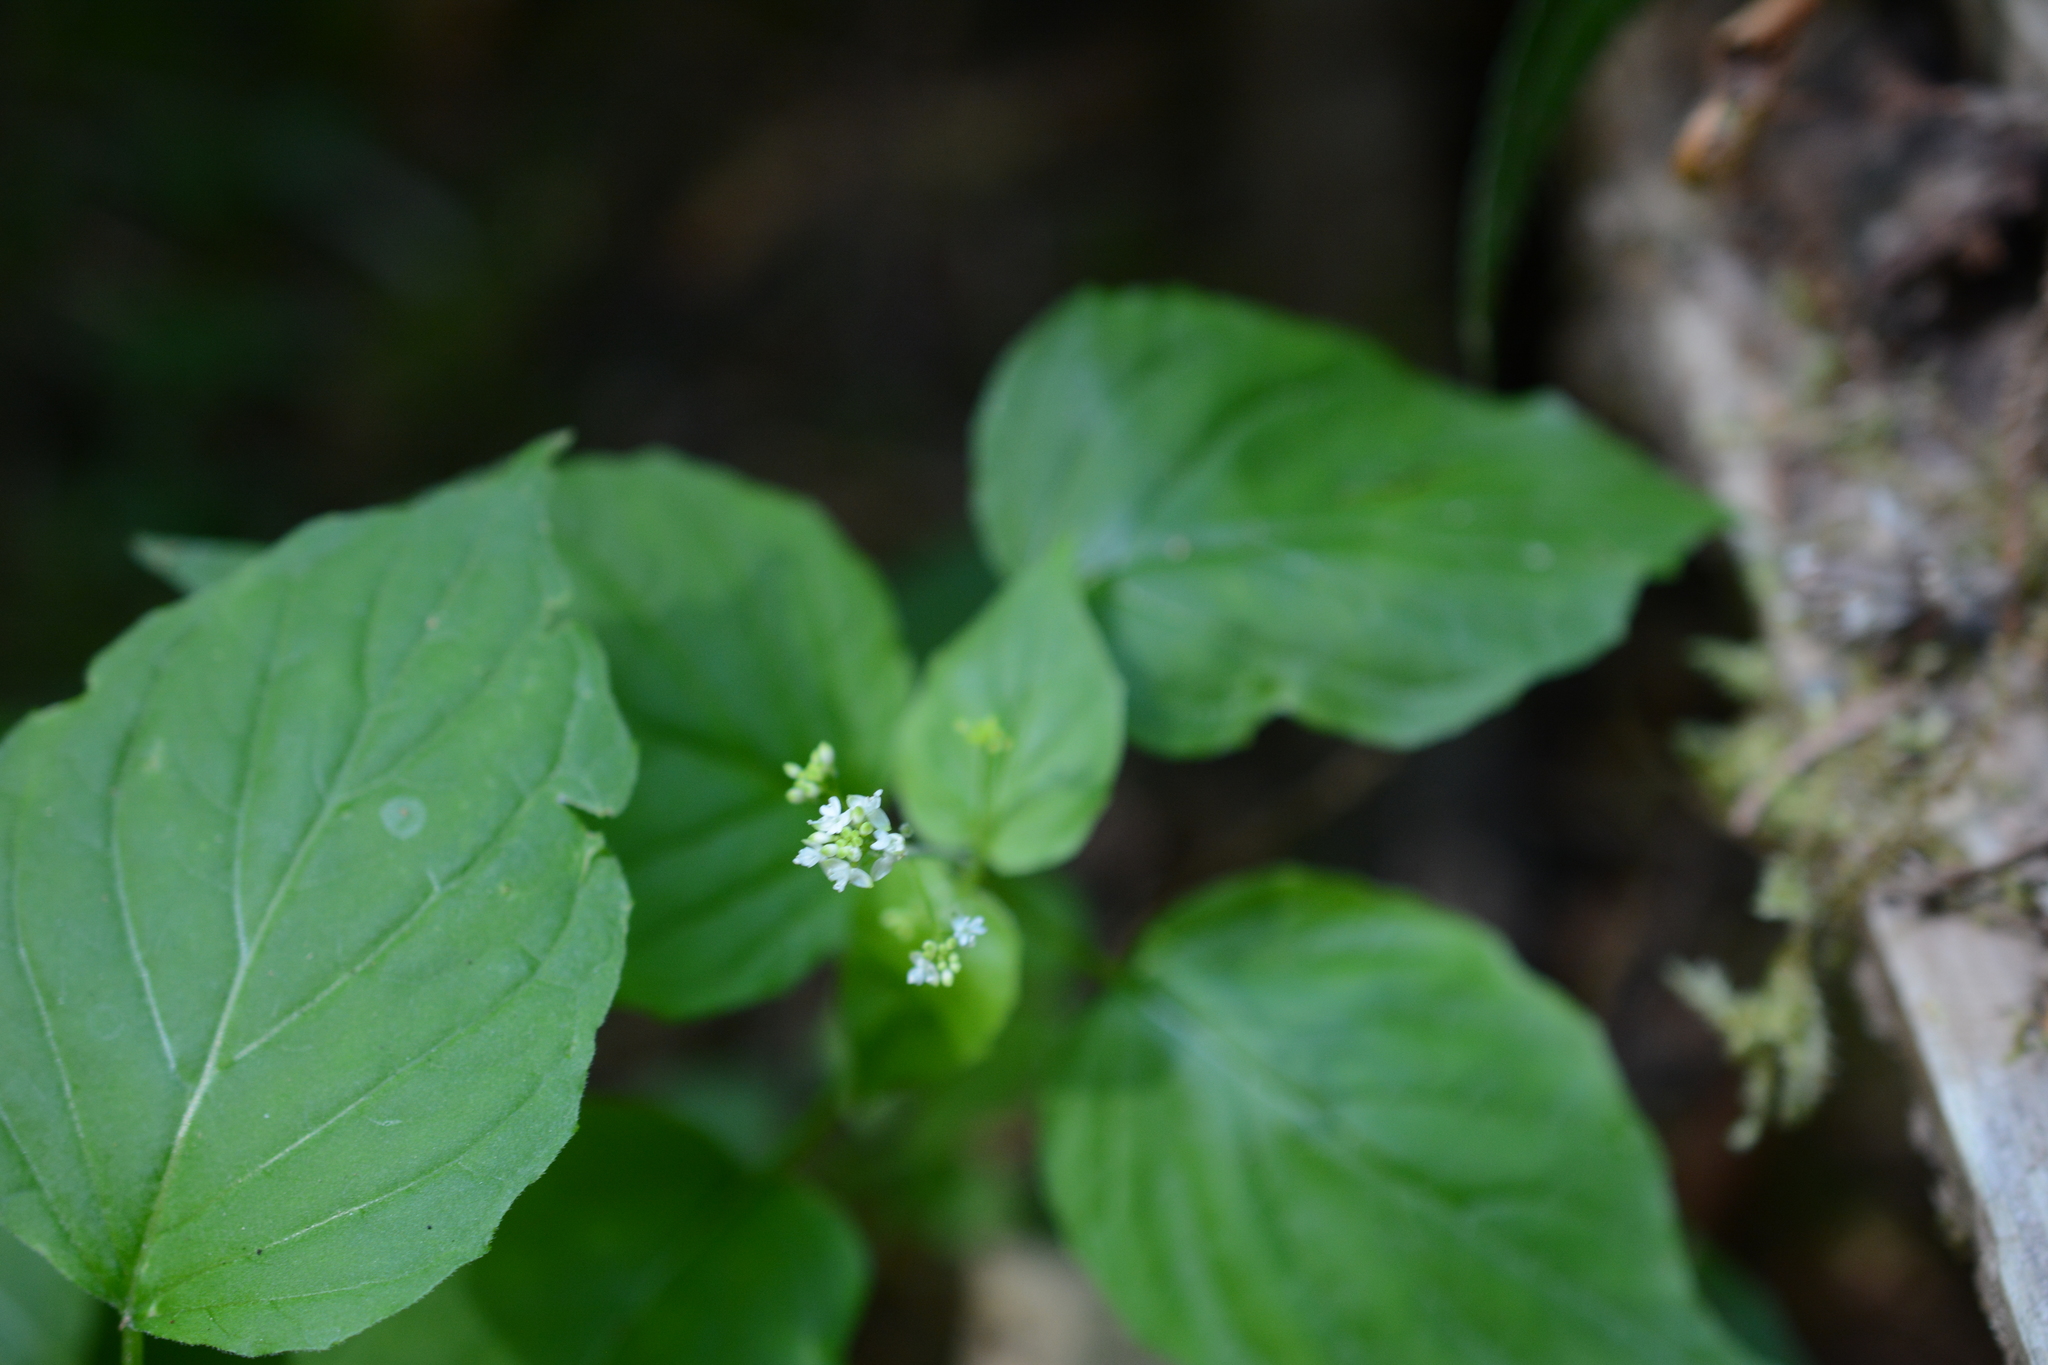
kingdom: Plantae
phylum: Tracheophyta
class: Magnoliopsida
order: Myrtales
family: Onagraceae
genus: Circaea
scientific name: Circaea alpina
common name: Alpine enchanter's-nightshade
